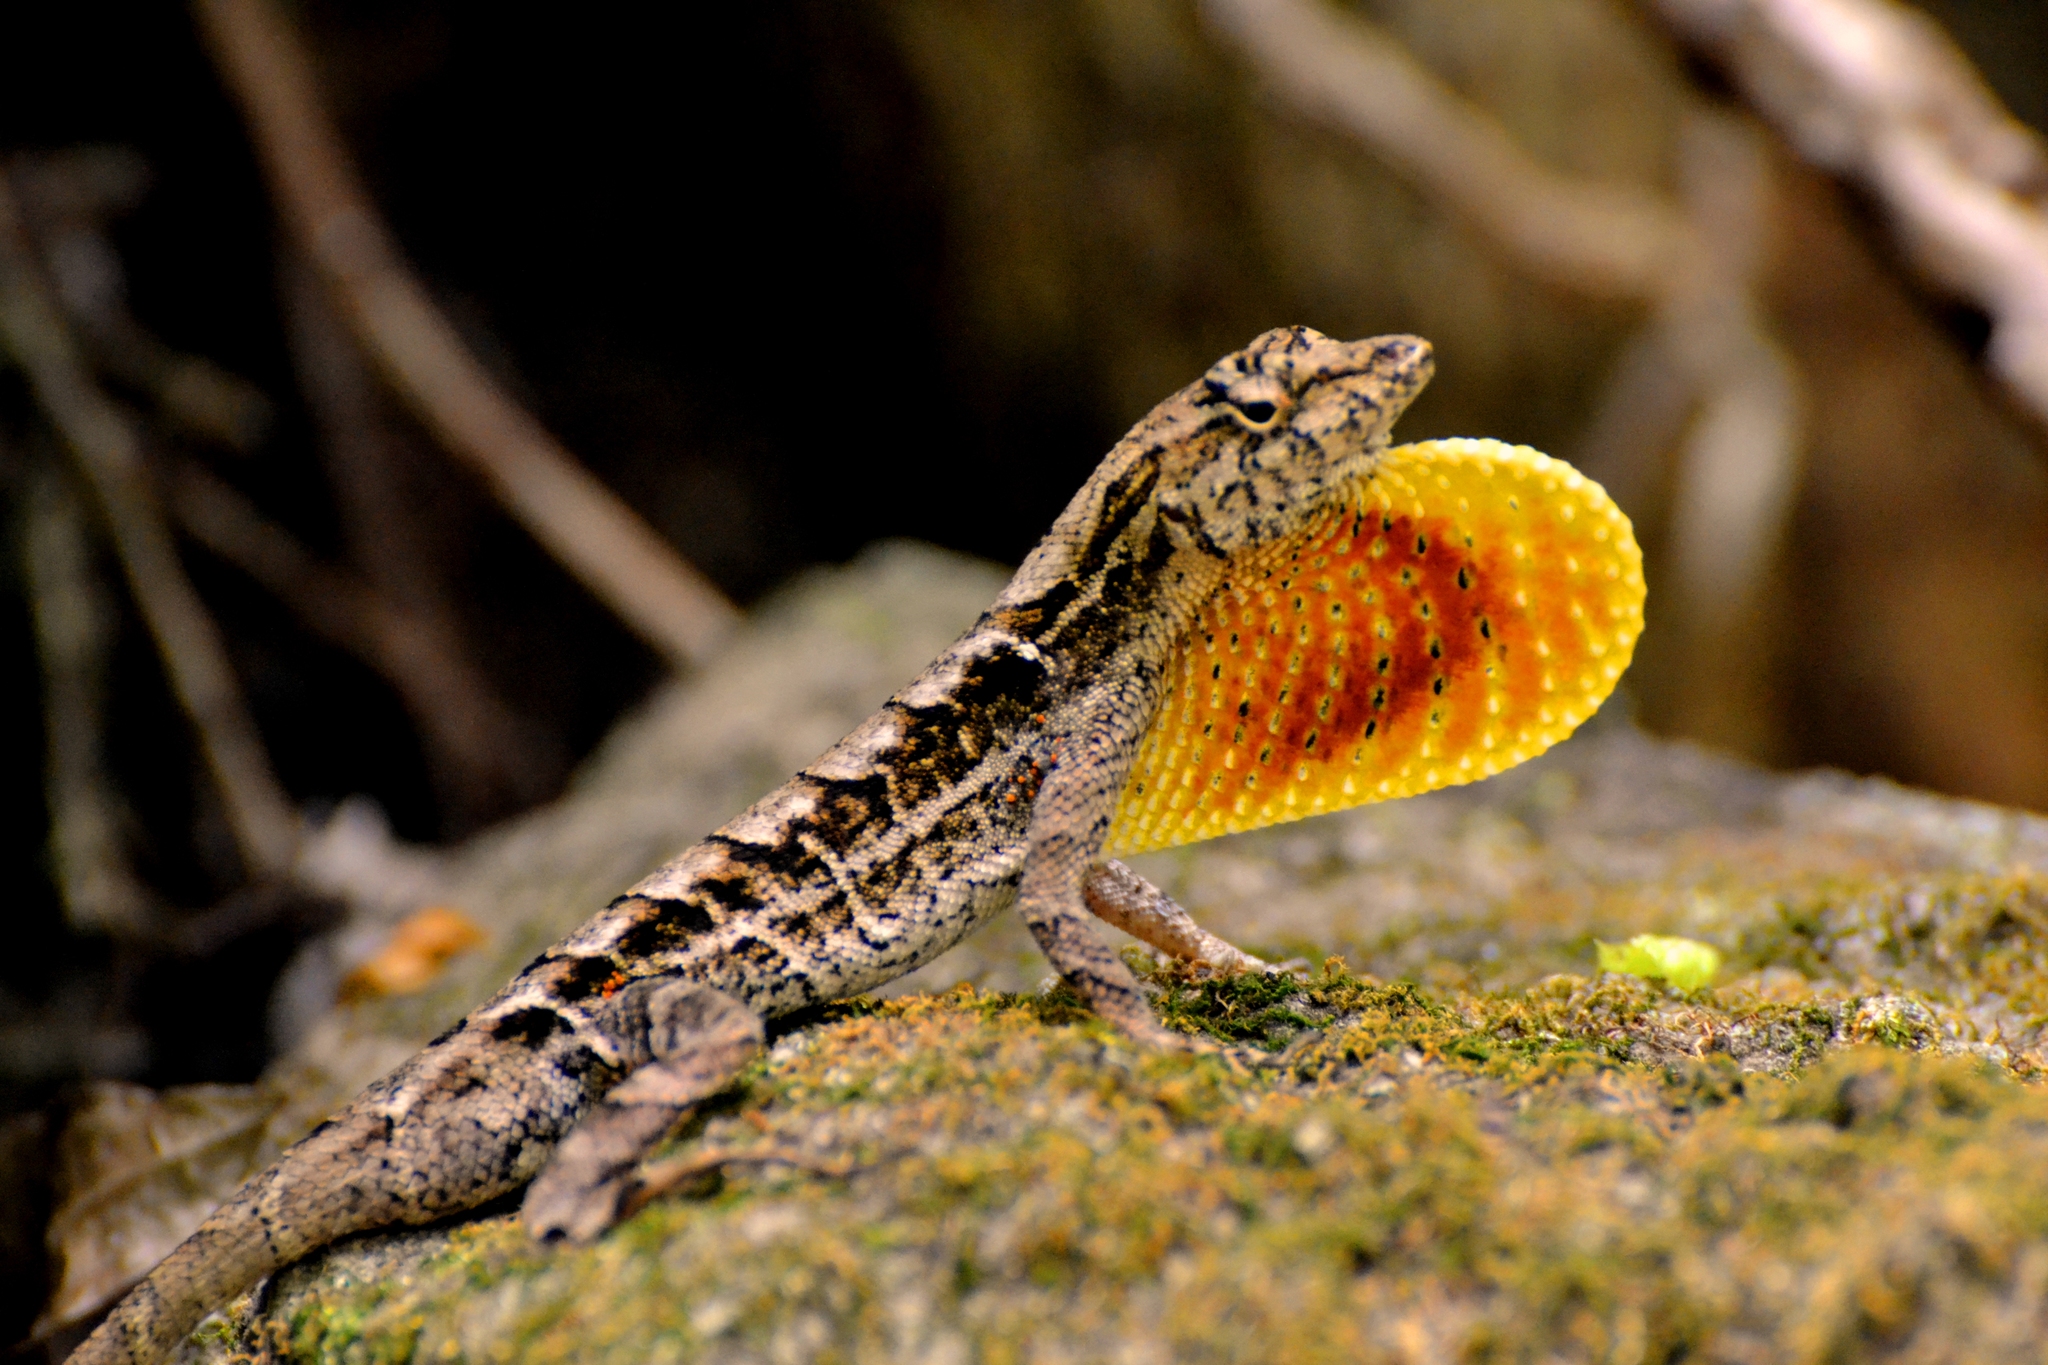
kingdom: Animalia
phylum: Chordata
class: Squamata
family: Dactyloidae
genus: Anolis
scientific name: Anolis spilorhipis
